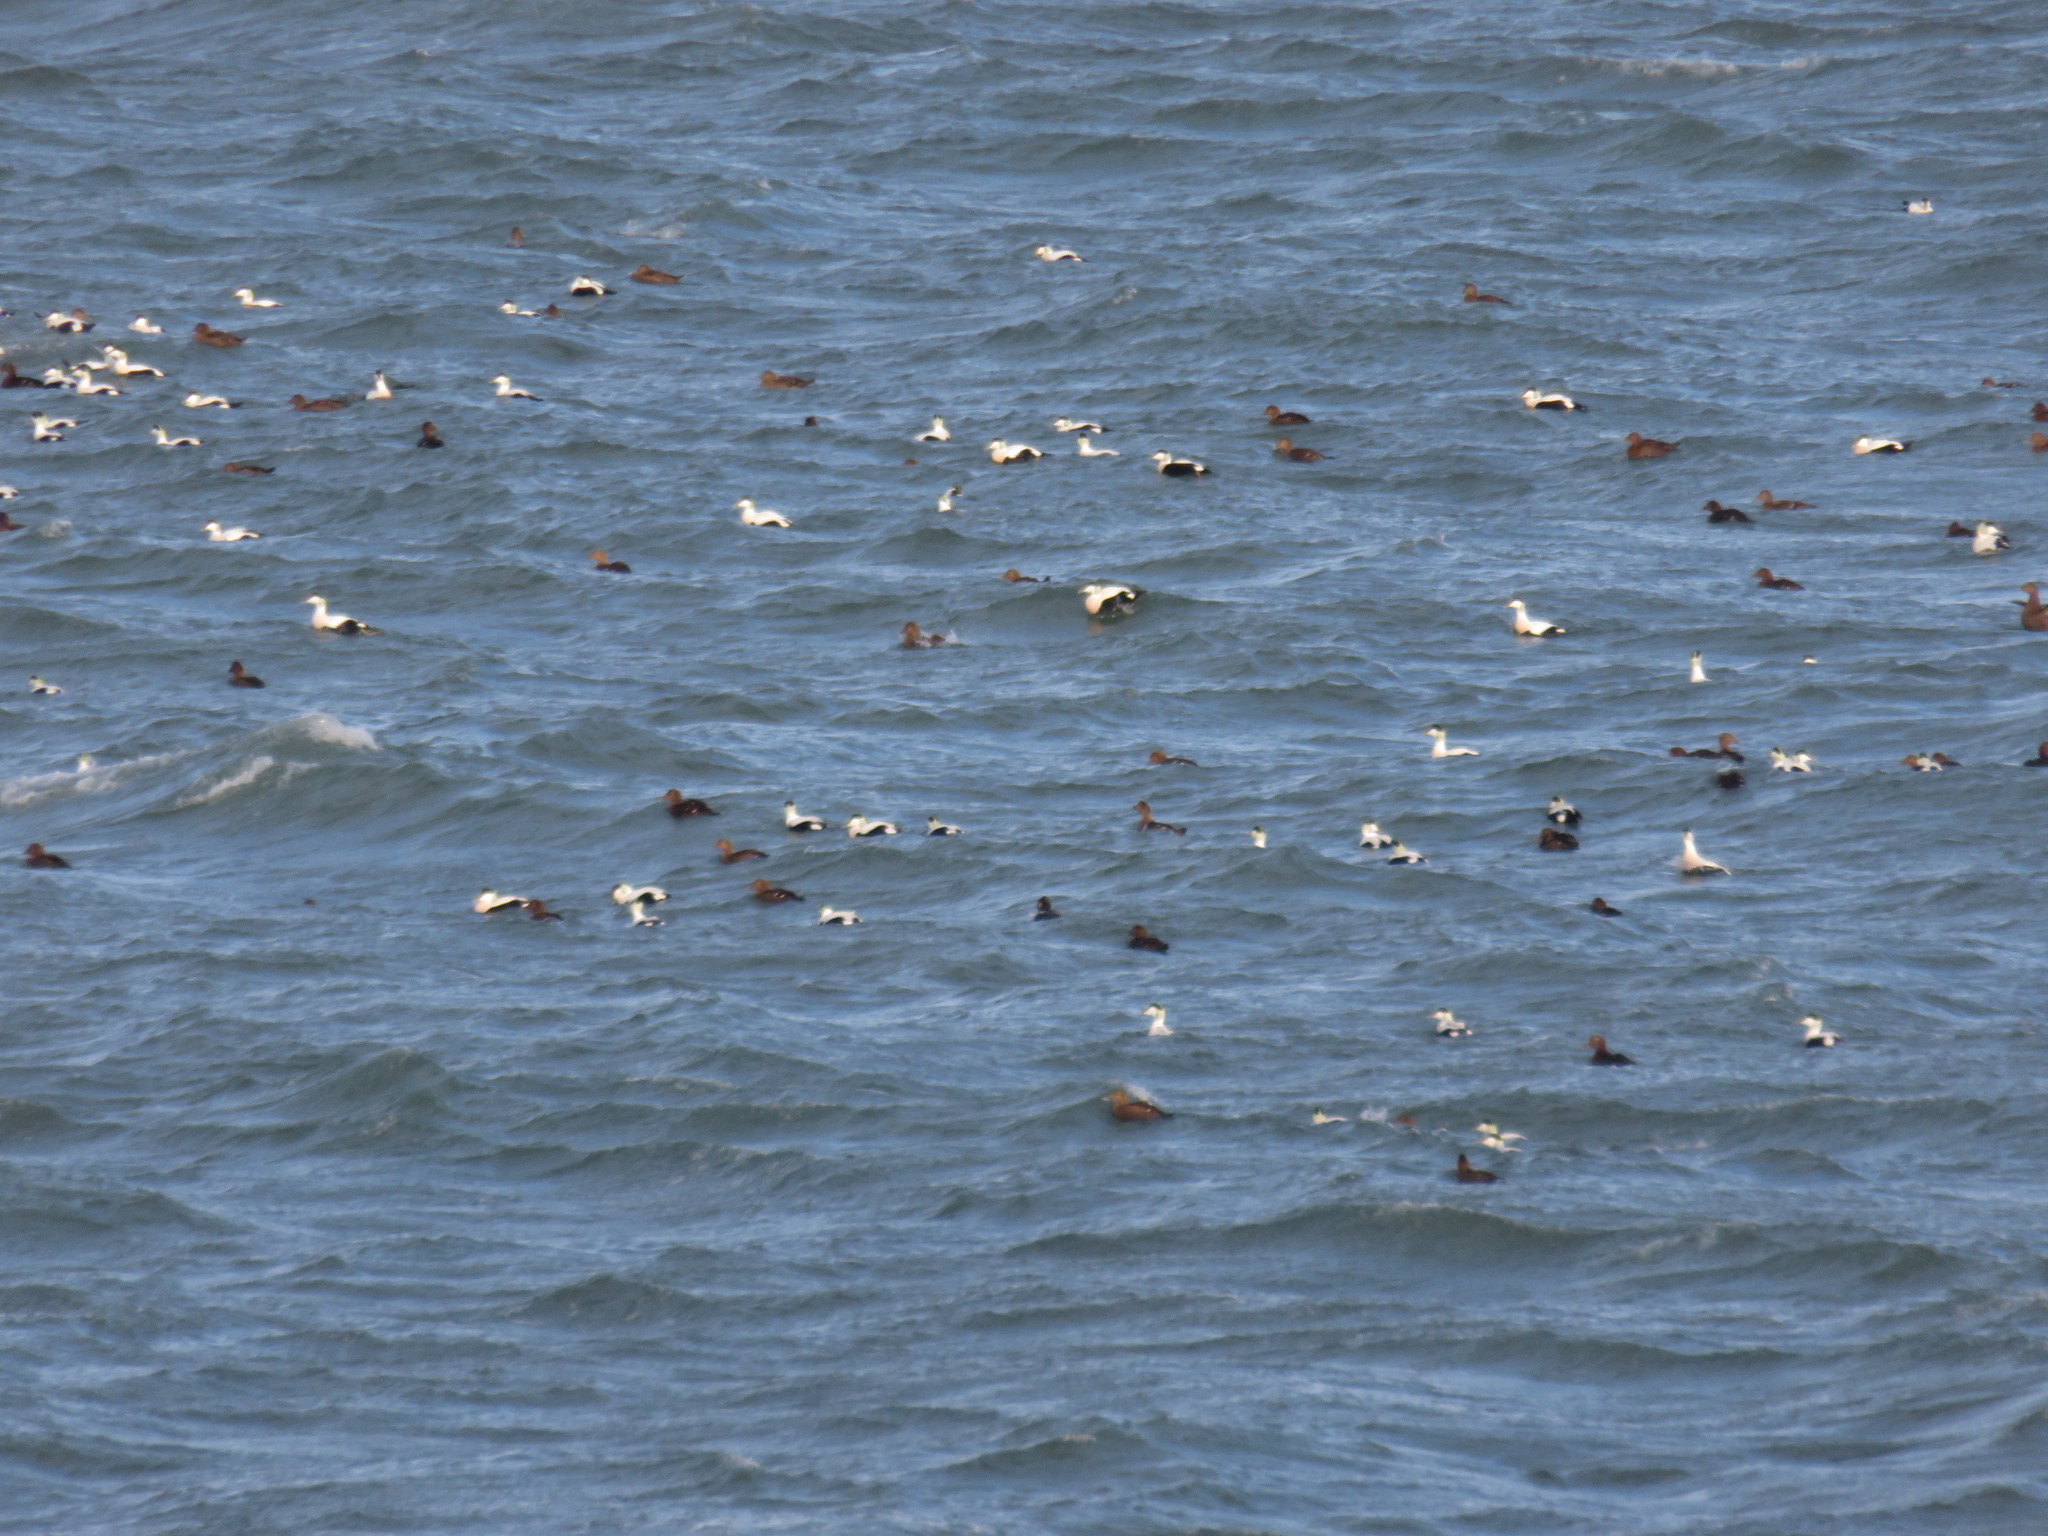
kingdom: Animalia
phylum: Chordata
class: Aves
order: Anseriformes
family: Anatidae
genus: Somateria
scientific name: Somateria mollissima
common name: Common eider
